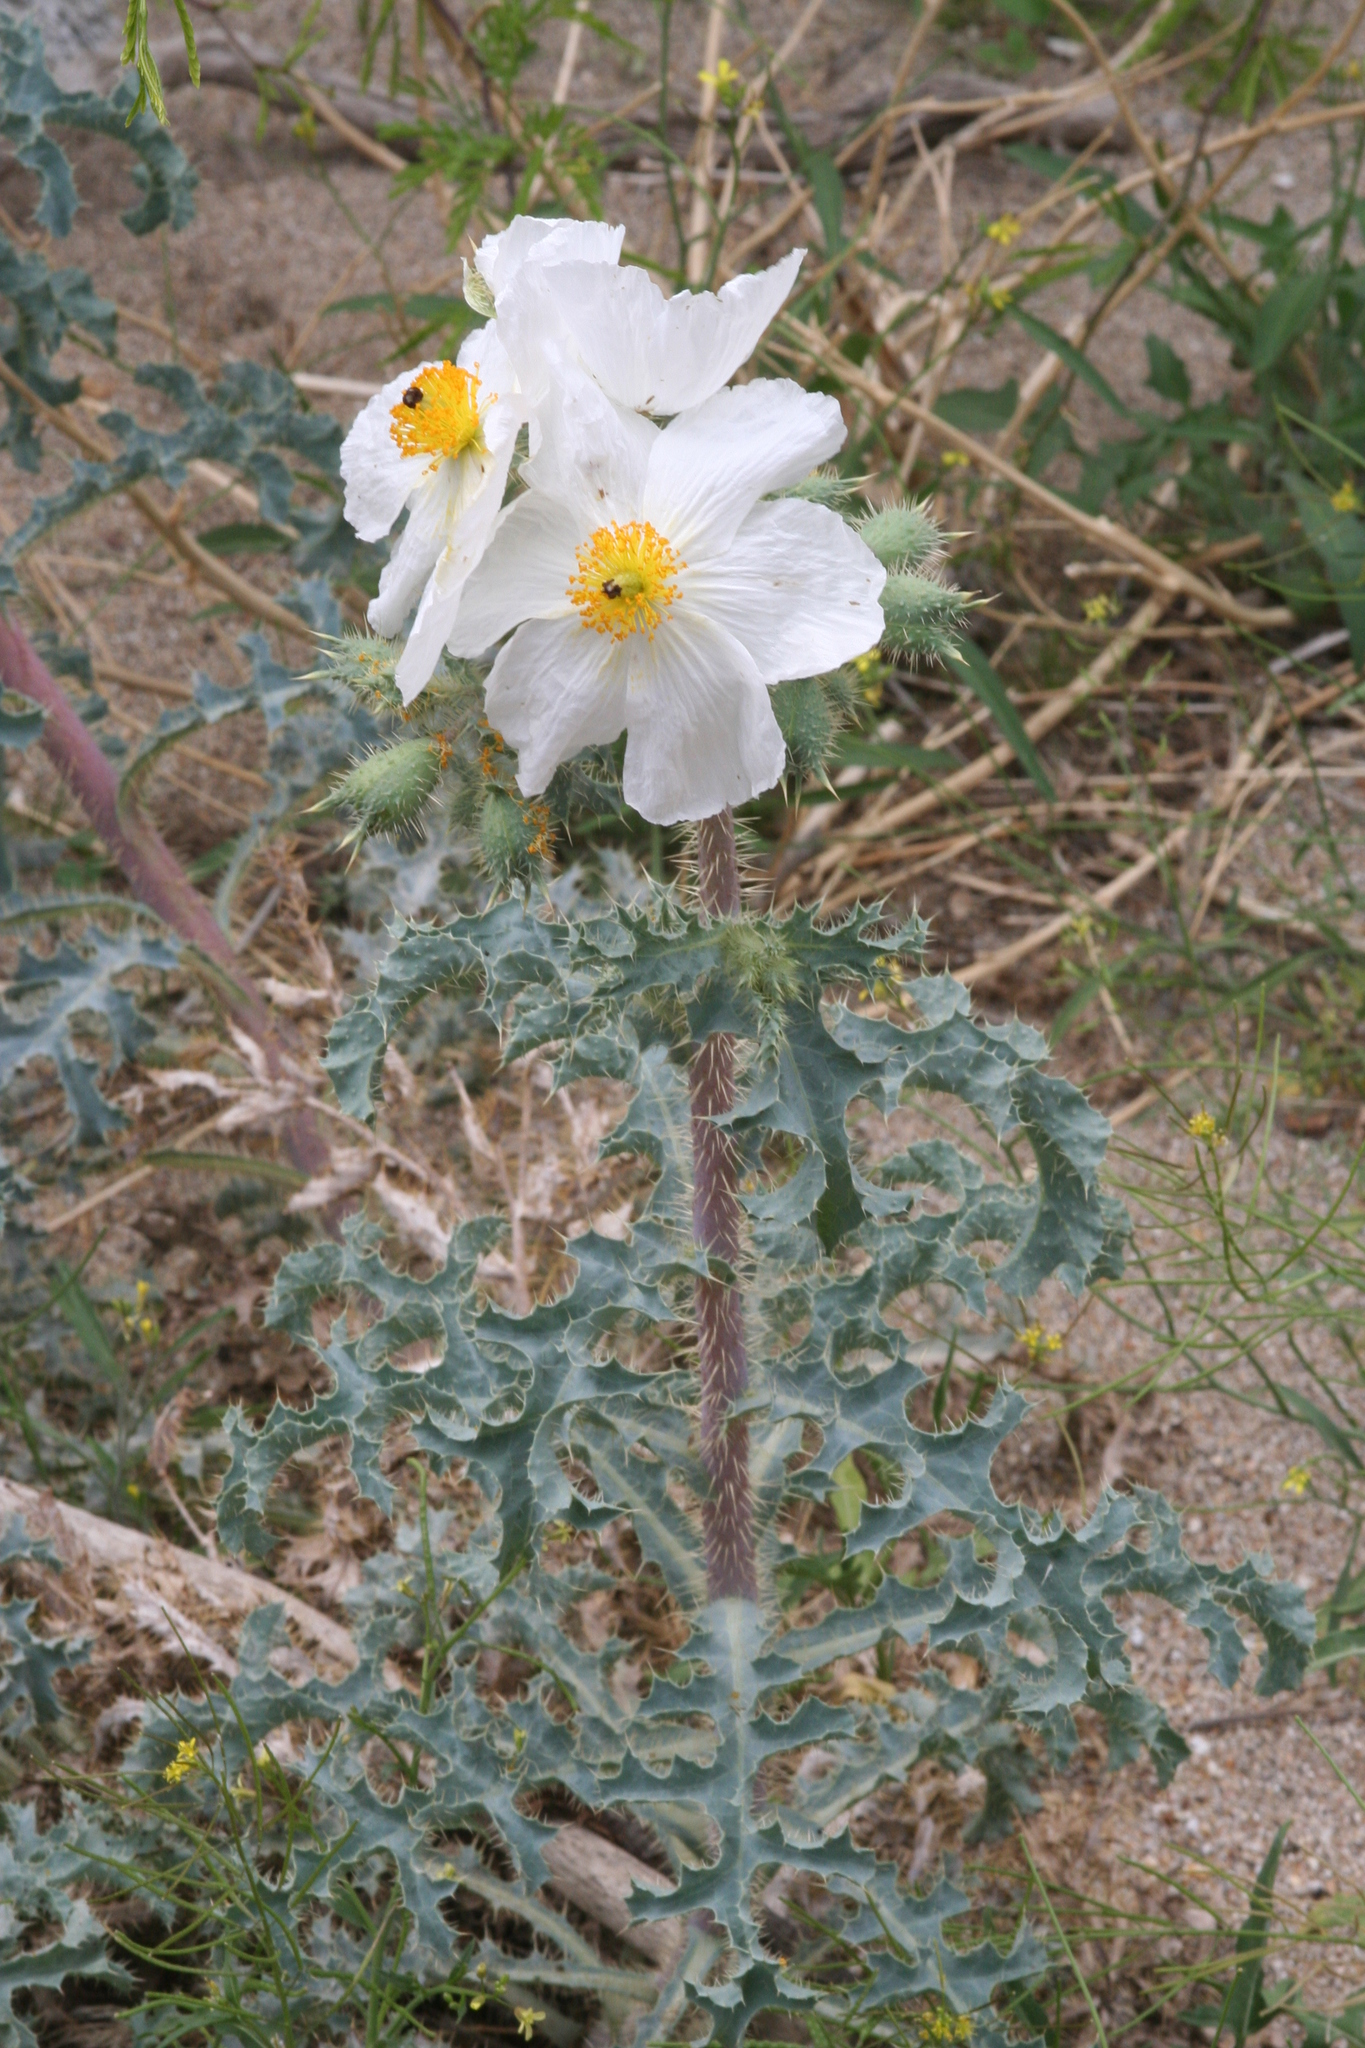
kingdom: Plantae
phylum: Tracheophyta
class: Magnoliopsida
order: Ranunculales
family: Papaveraceae
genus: Argemone
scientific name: Argemone munita
